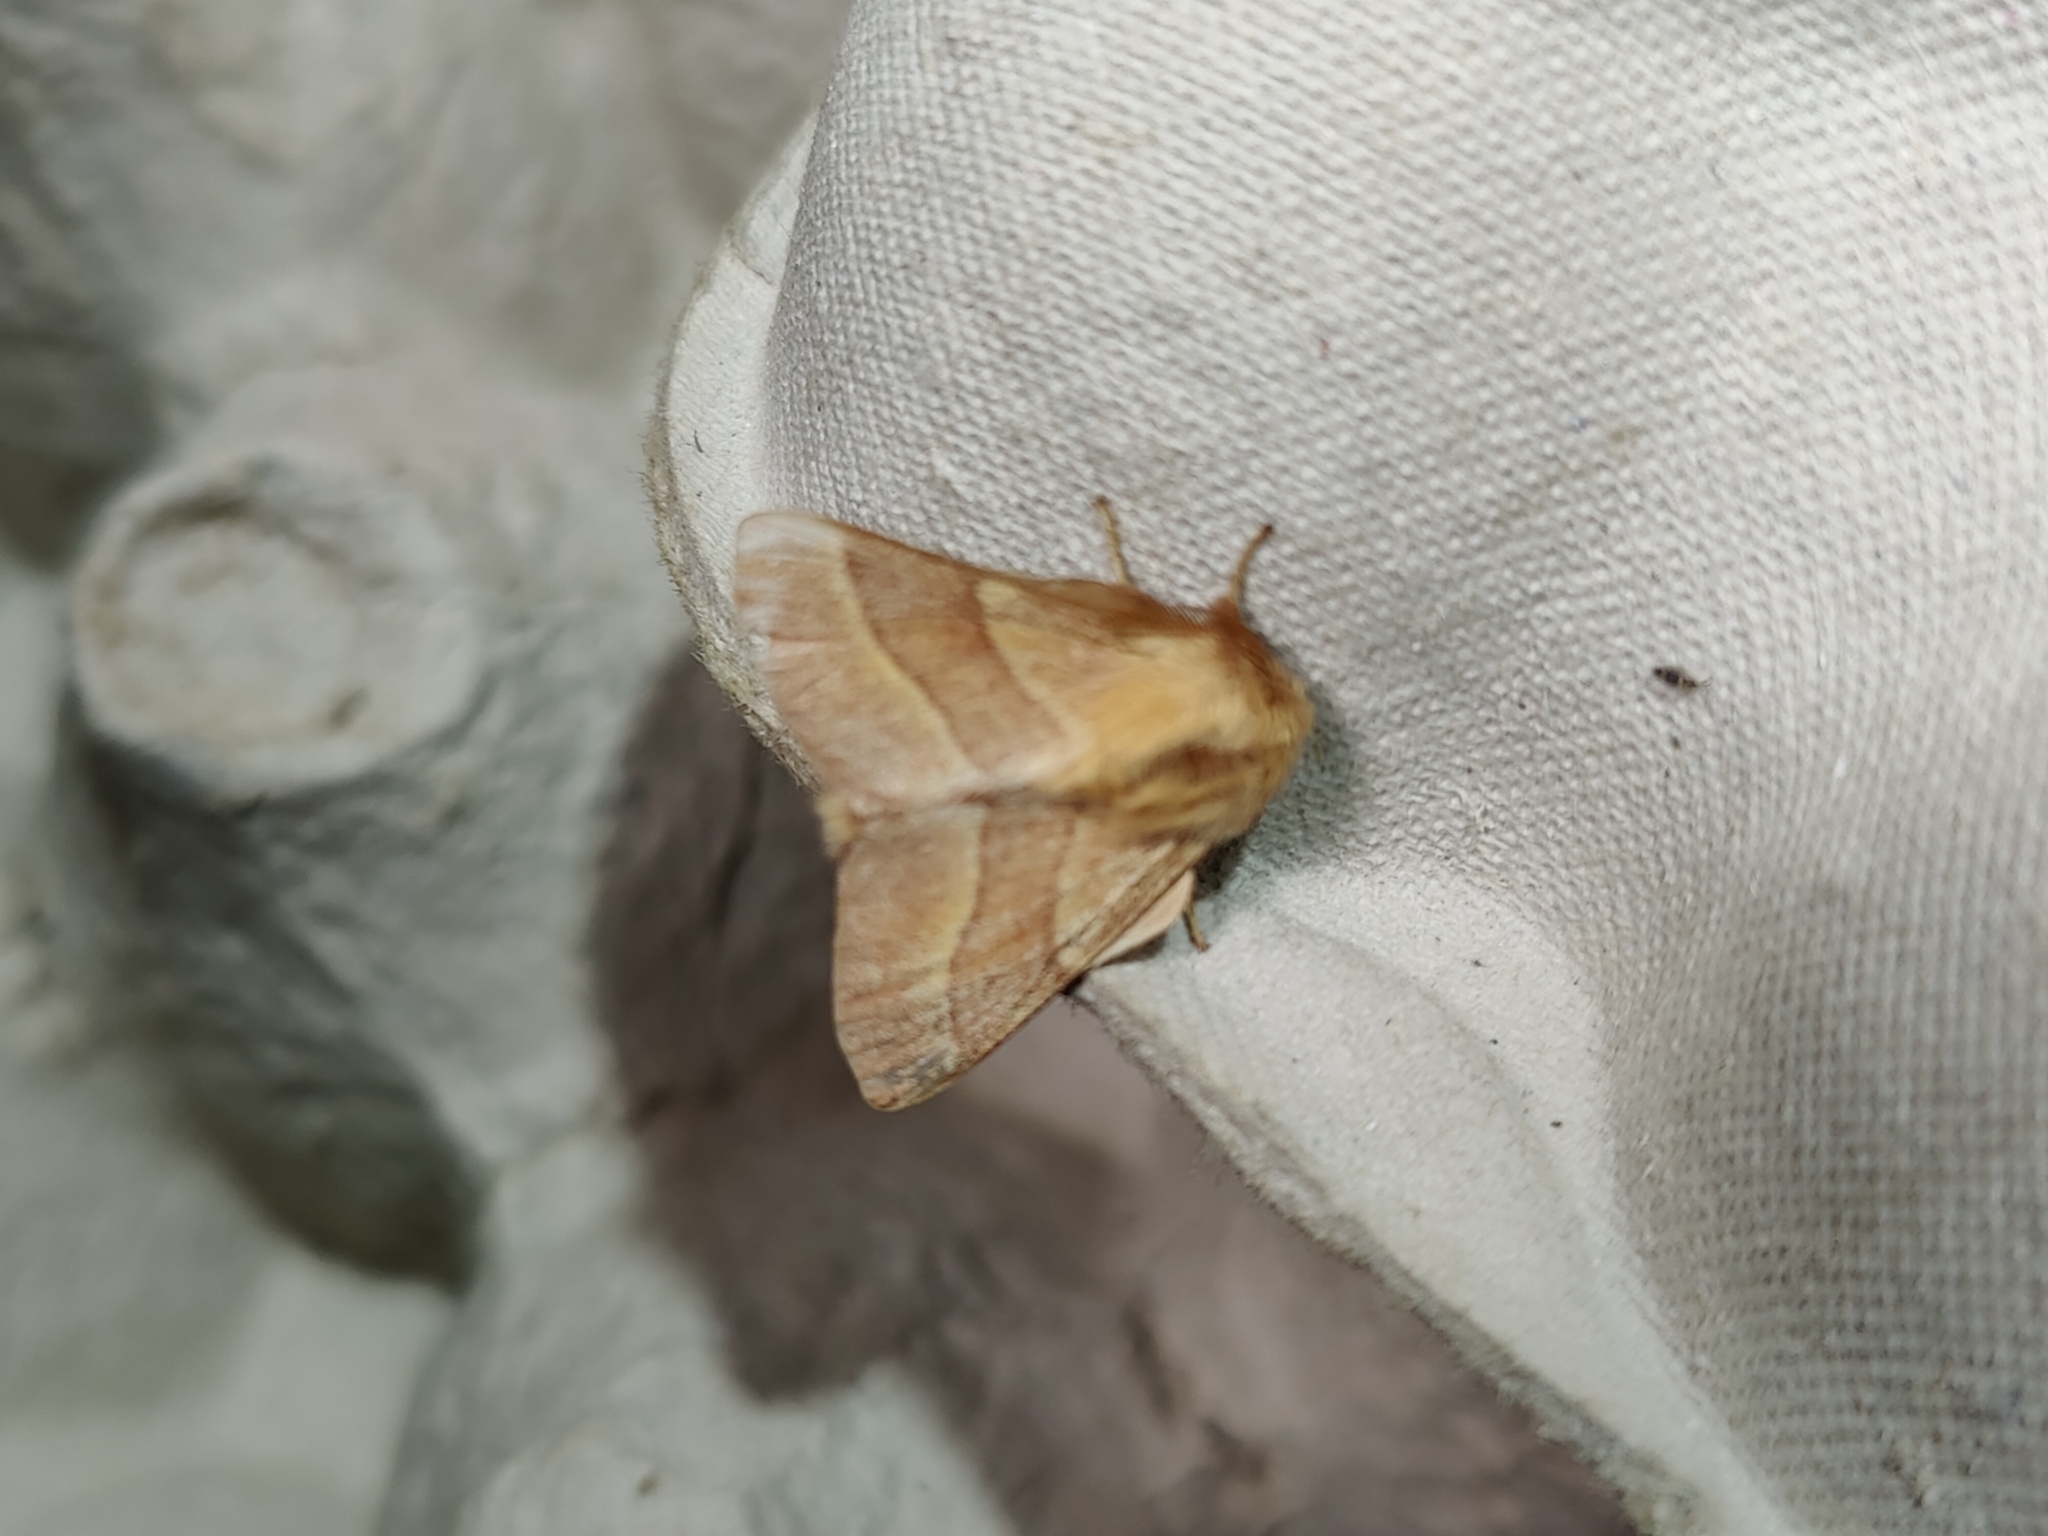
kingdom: Animalia
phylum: Arthropoda
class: Insecta
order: Lepidoptera
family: Lasiocampidae
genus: Malacosoma
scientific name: Malacosoma neustria
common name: The lackey
